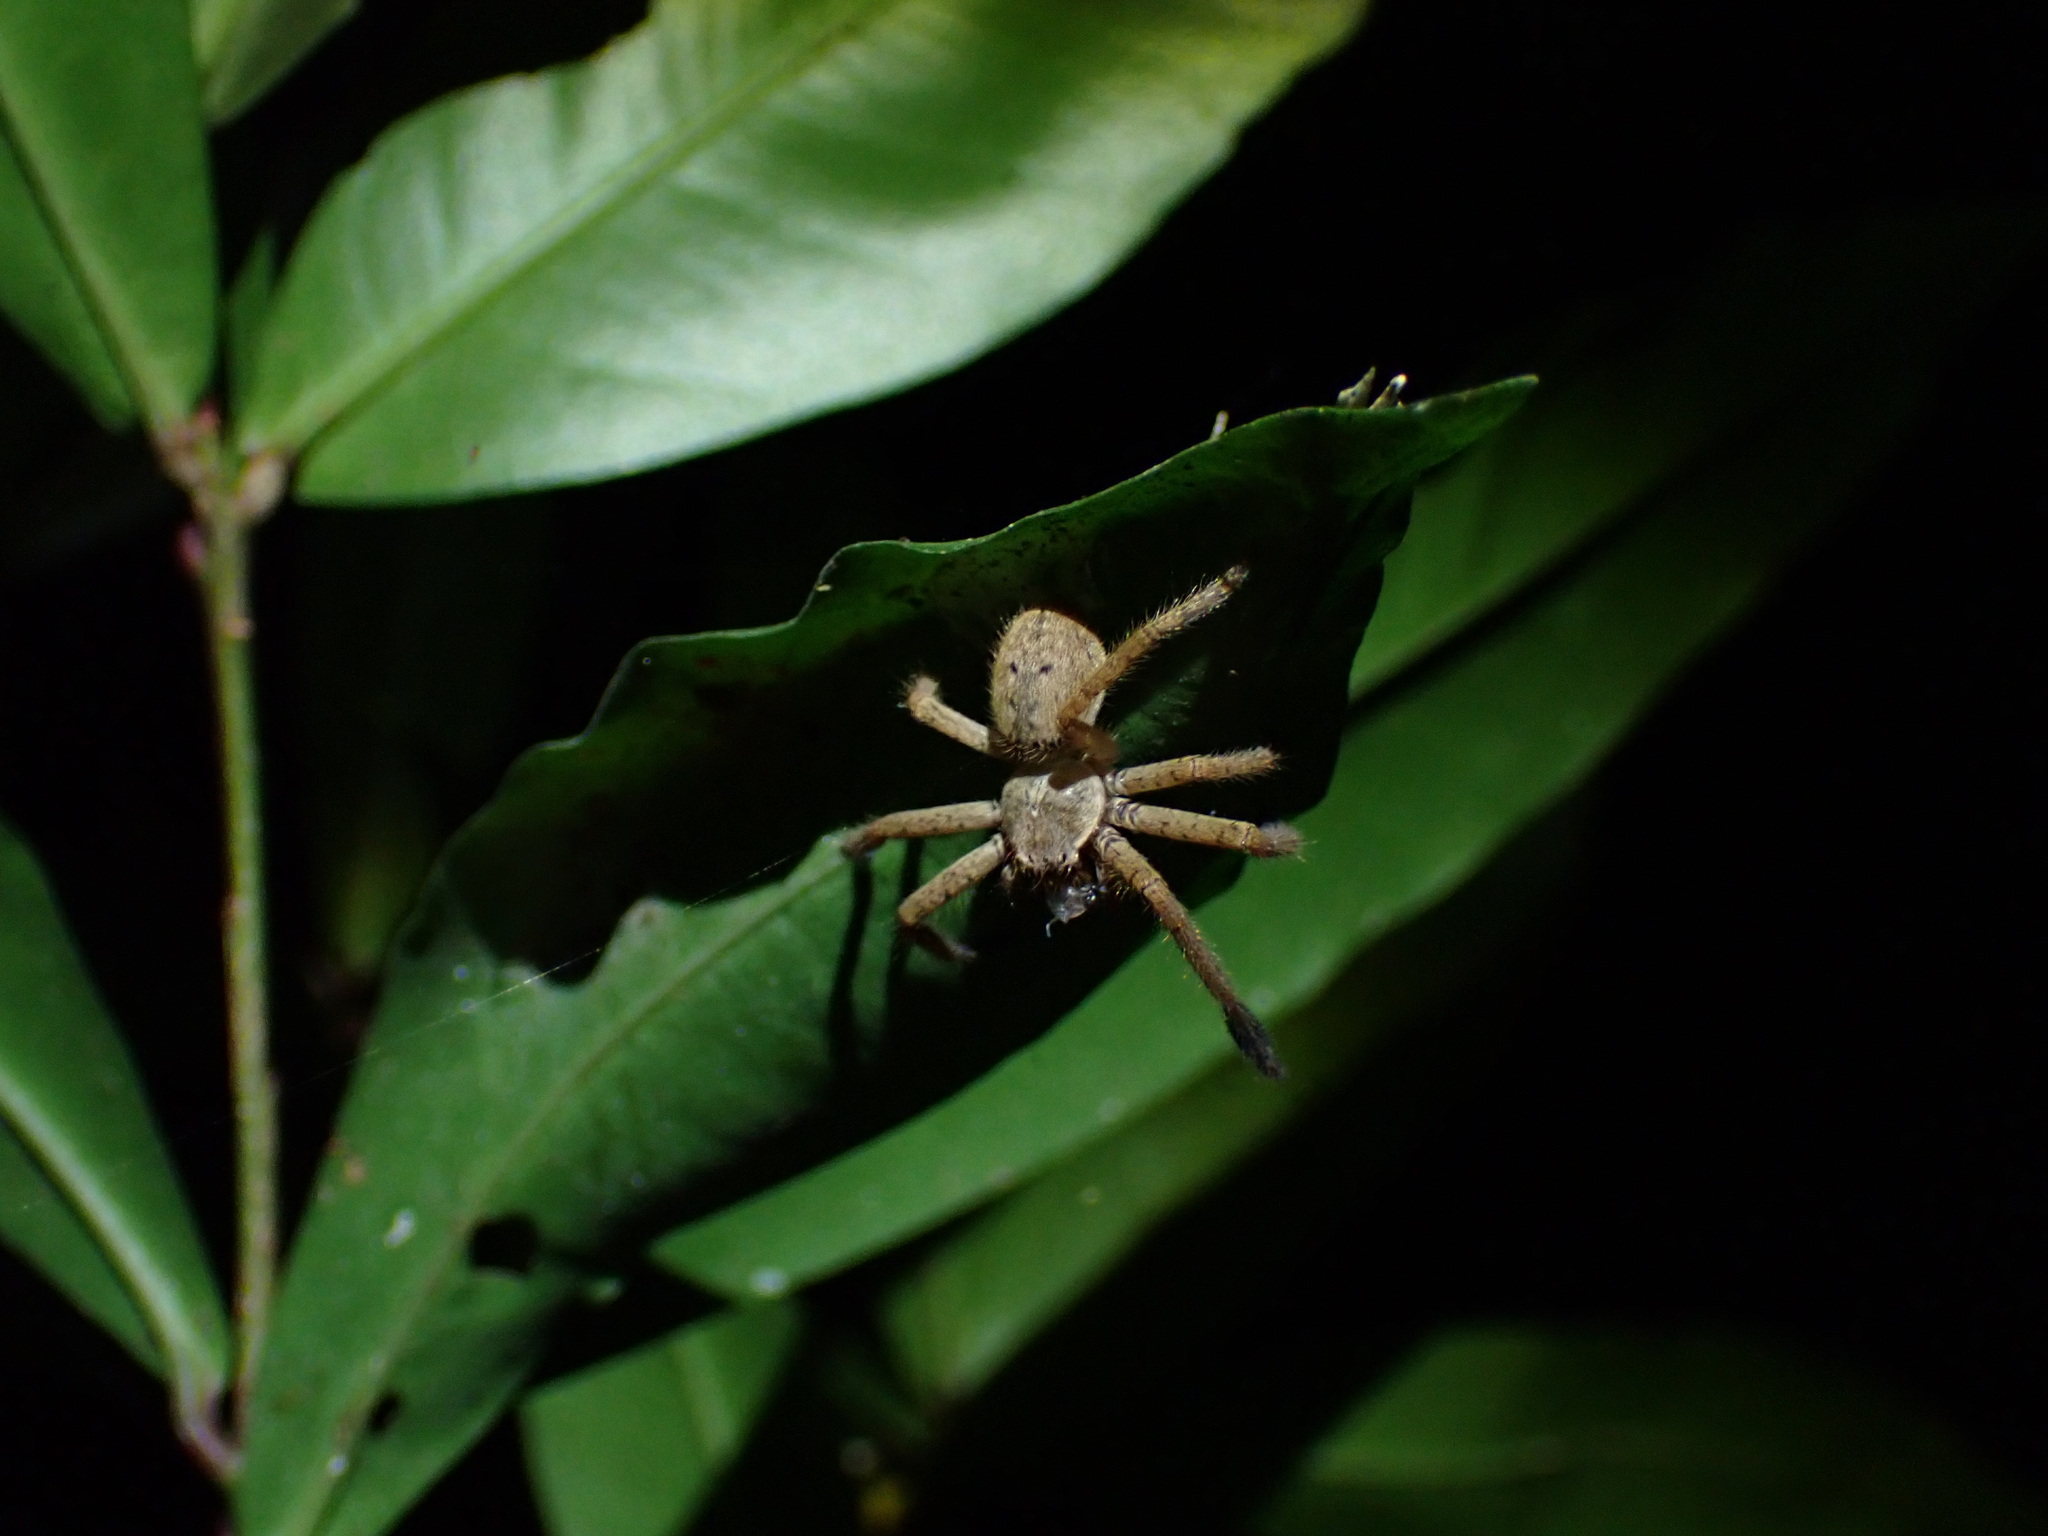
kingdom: Animalia
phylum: Arthropoda
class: Arachnida
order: Araneae
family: Sparassidae
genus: Beregama
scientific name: Beregama cordata
